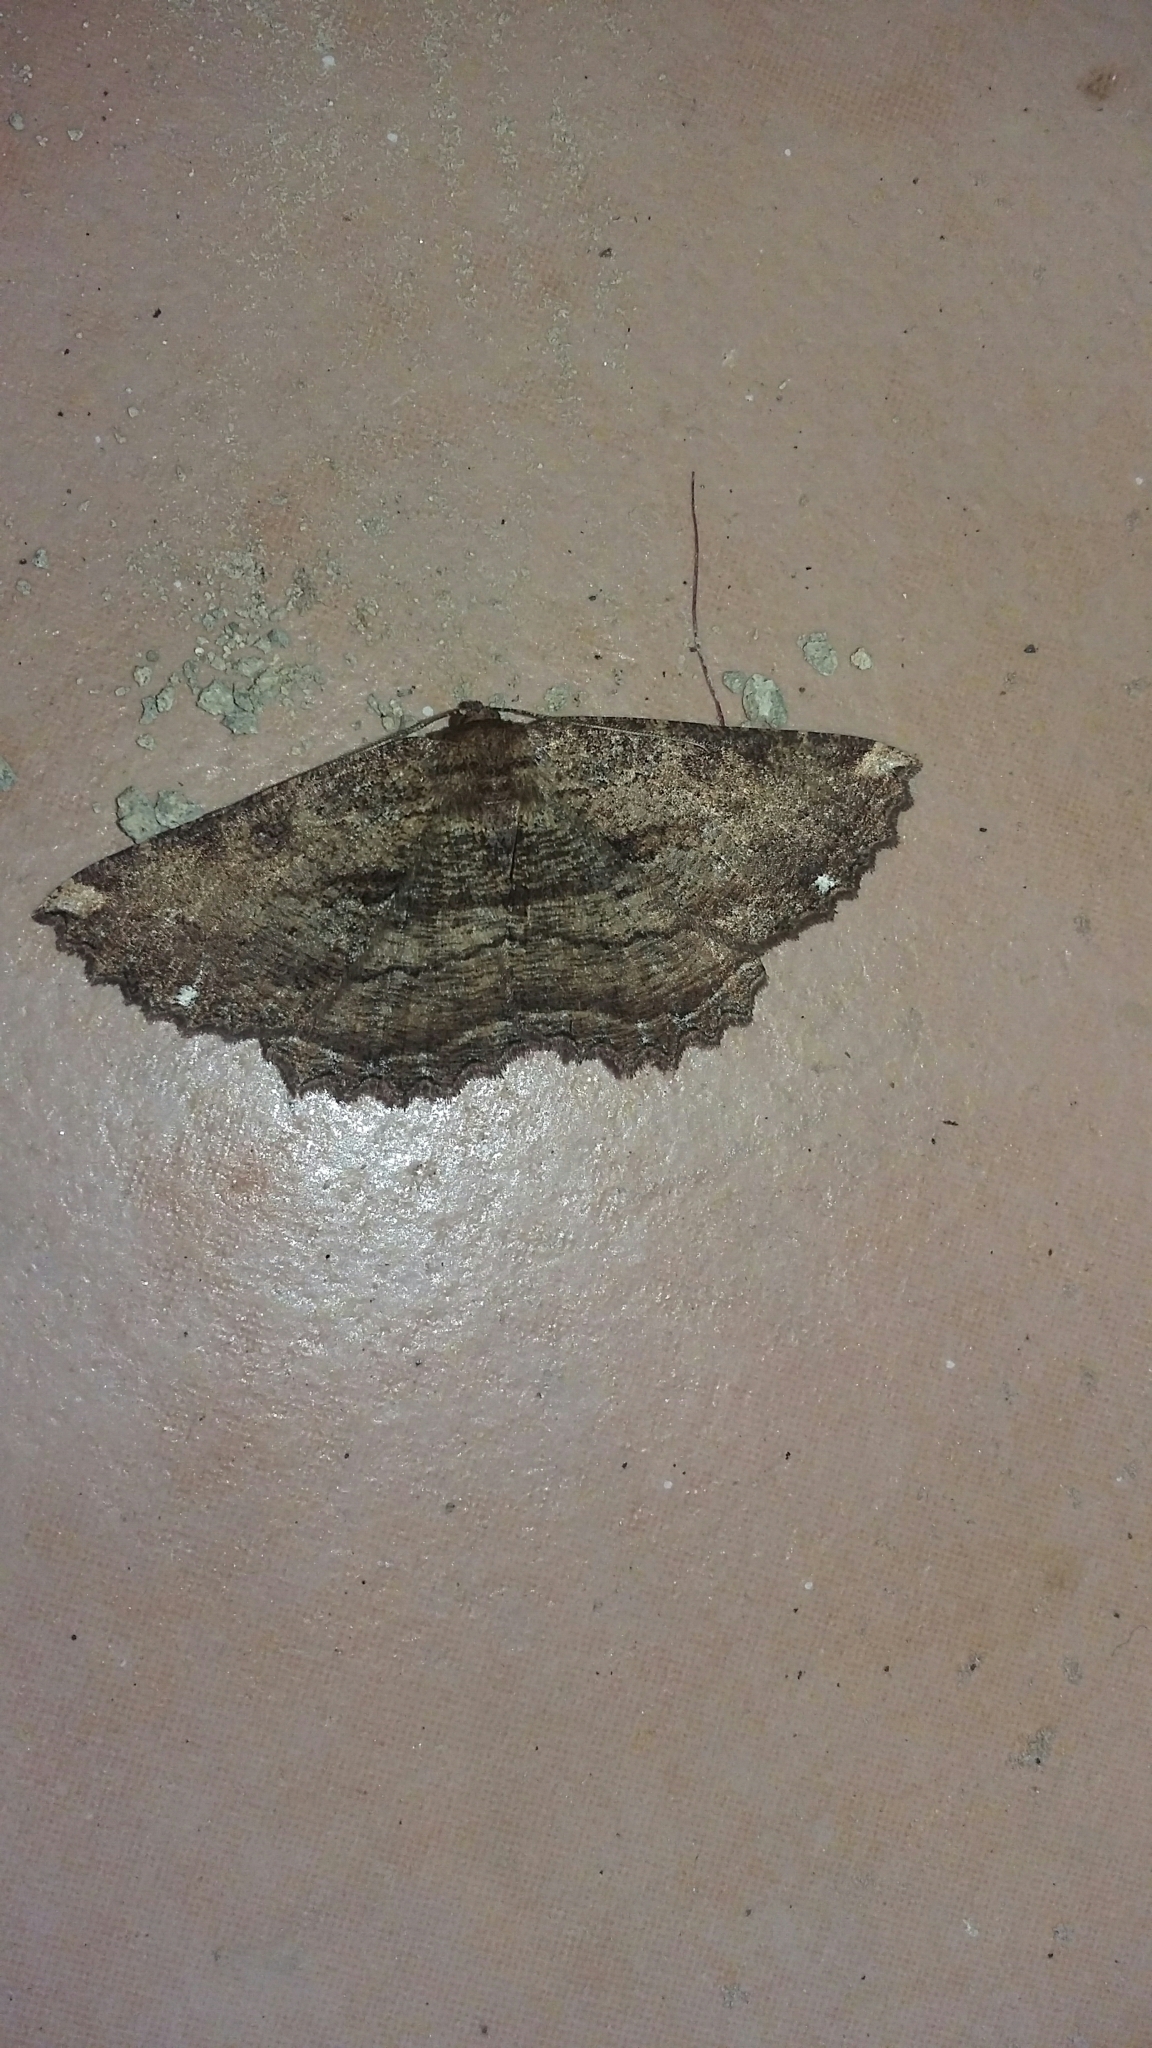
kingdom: Animalia
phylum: Arthropoda
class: Insecta
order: Lepidoptera
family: Geometridae
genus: Gellonia
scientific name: Gellonia dejectaria
